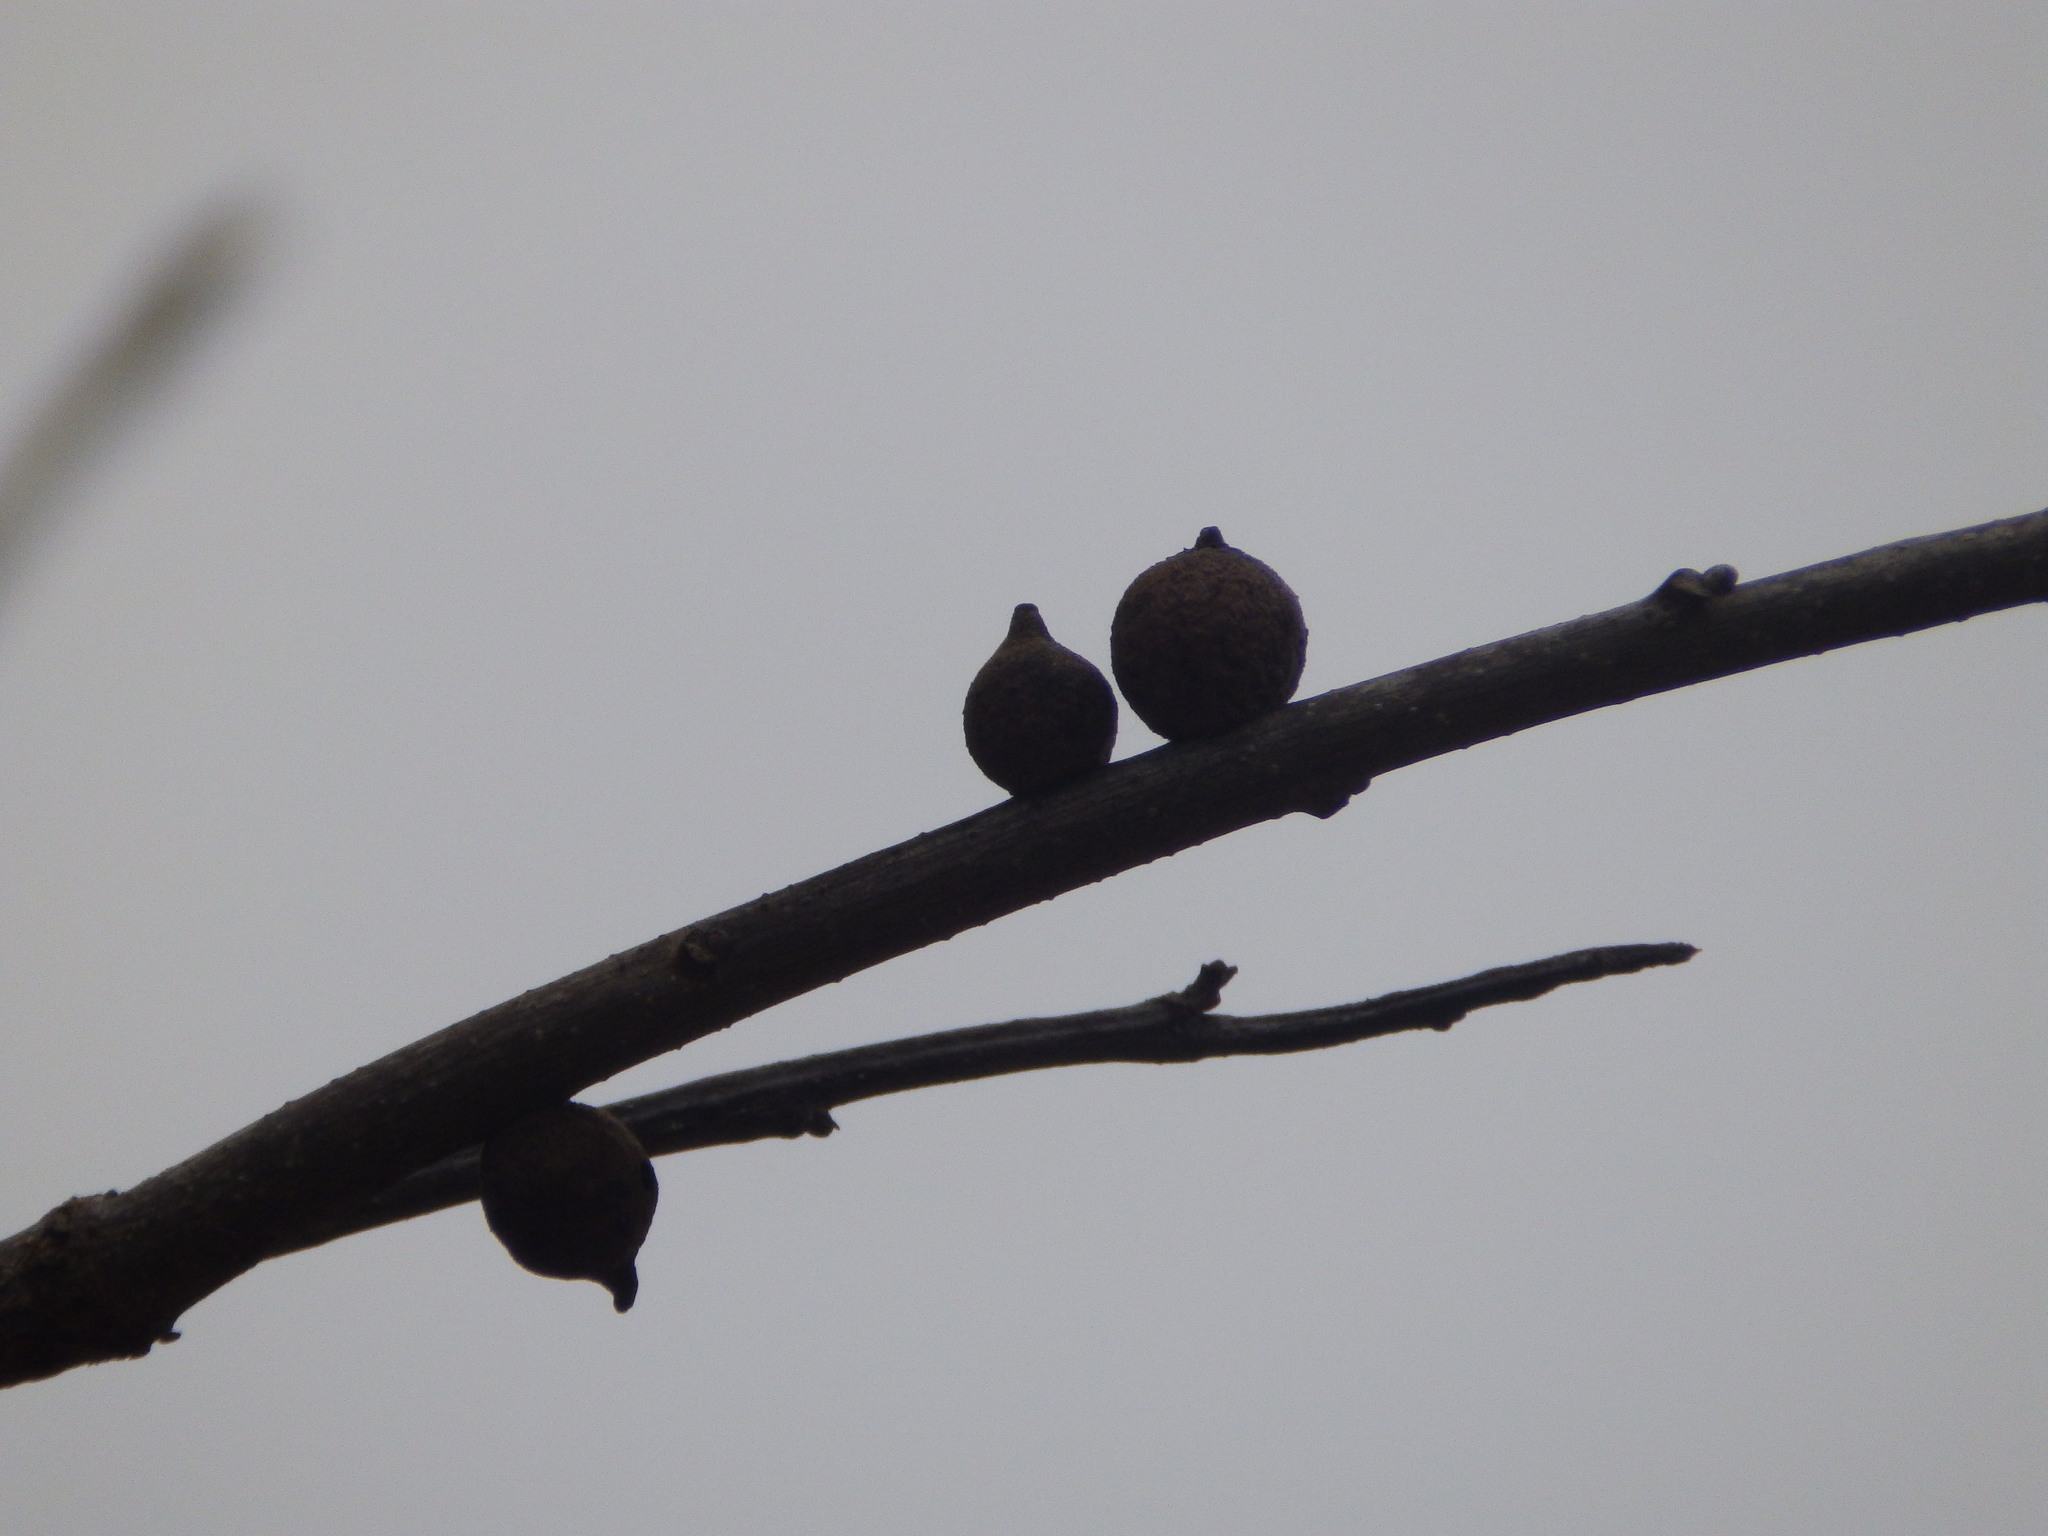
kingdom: Animalia
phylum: Arthropoda
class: Insecta
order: Hymenoptera
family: Cynipidae
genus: Disholcaspis
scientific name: Disholcaspis
